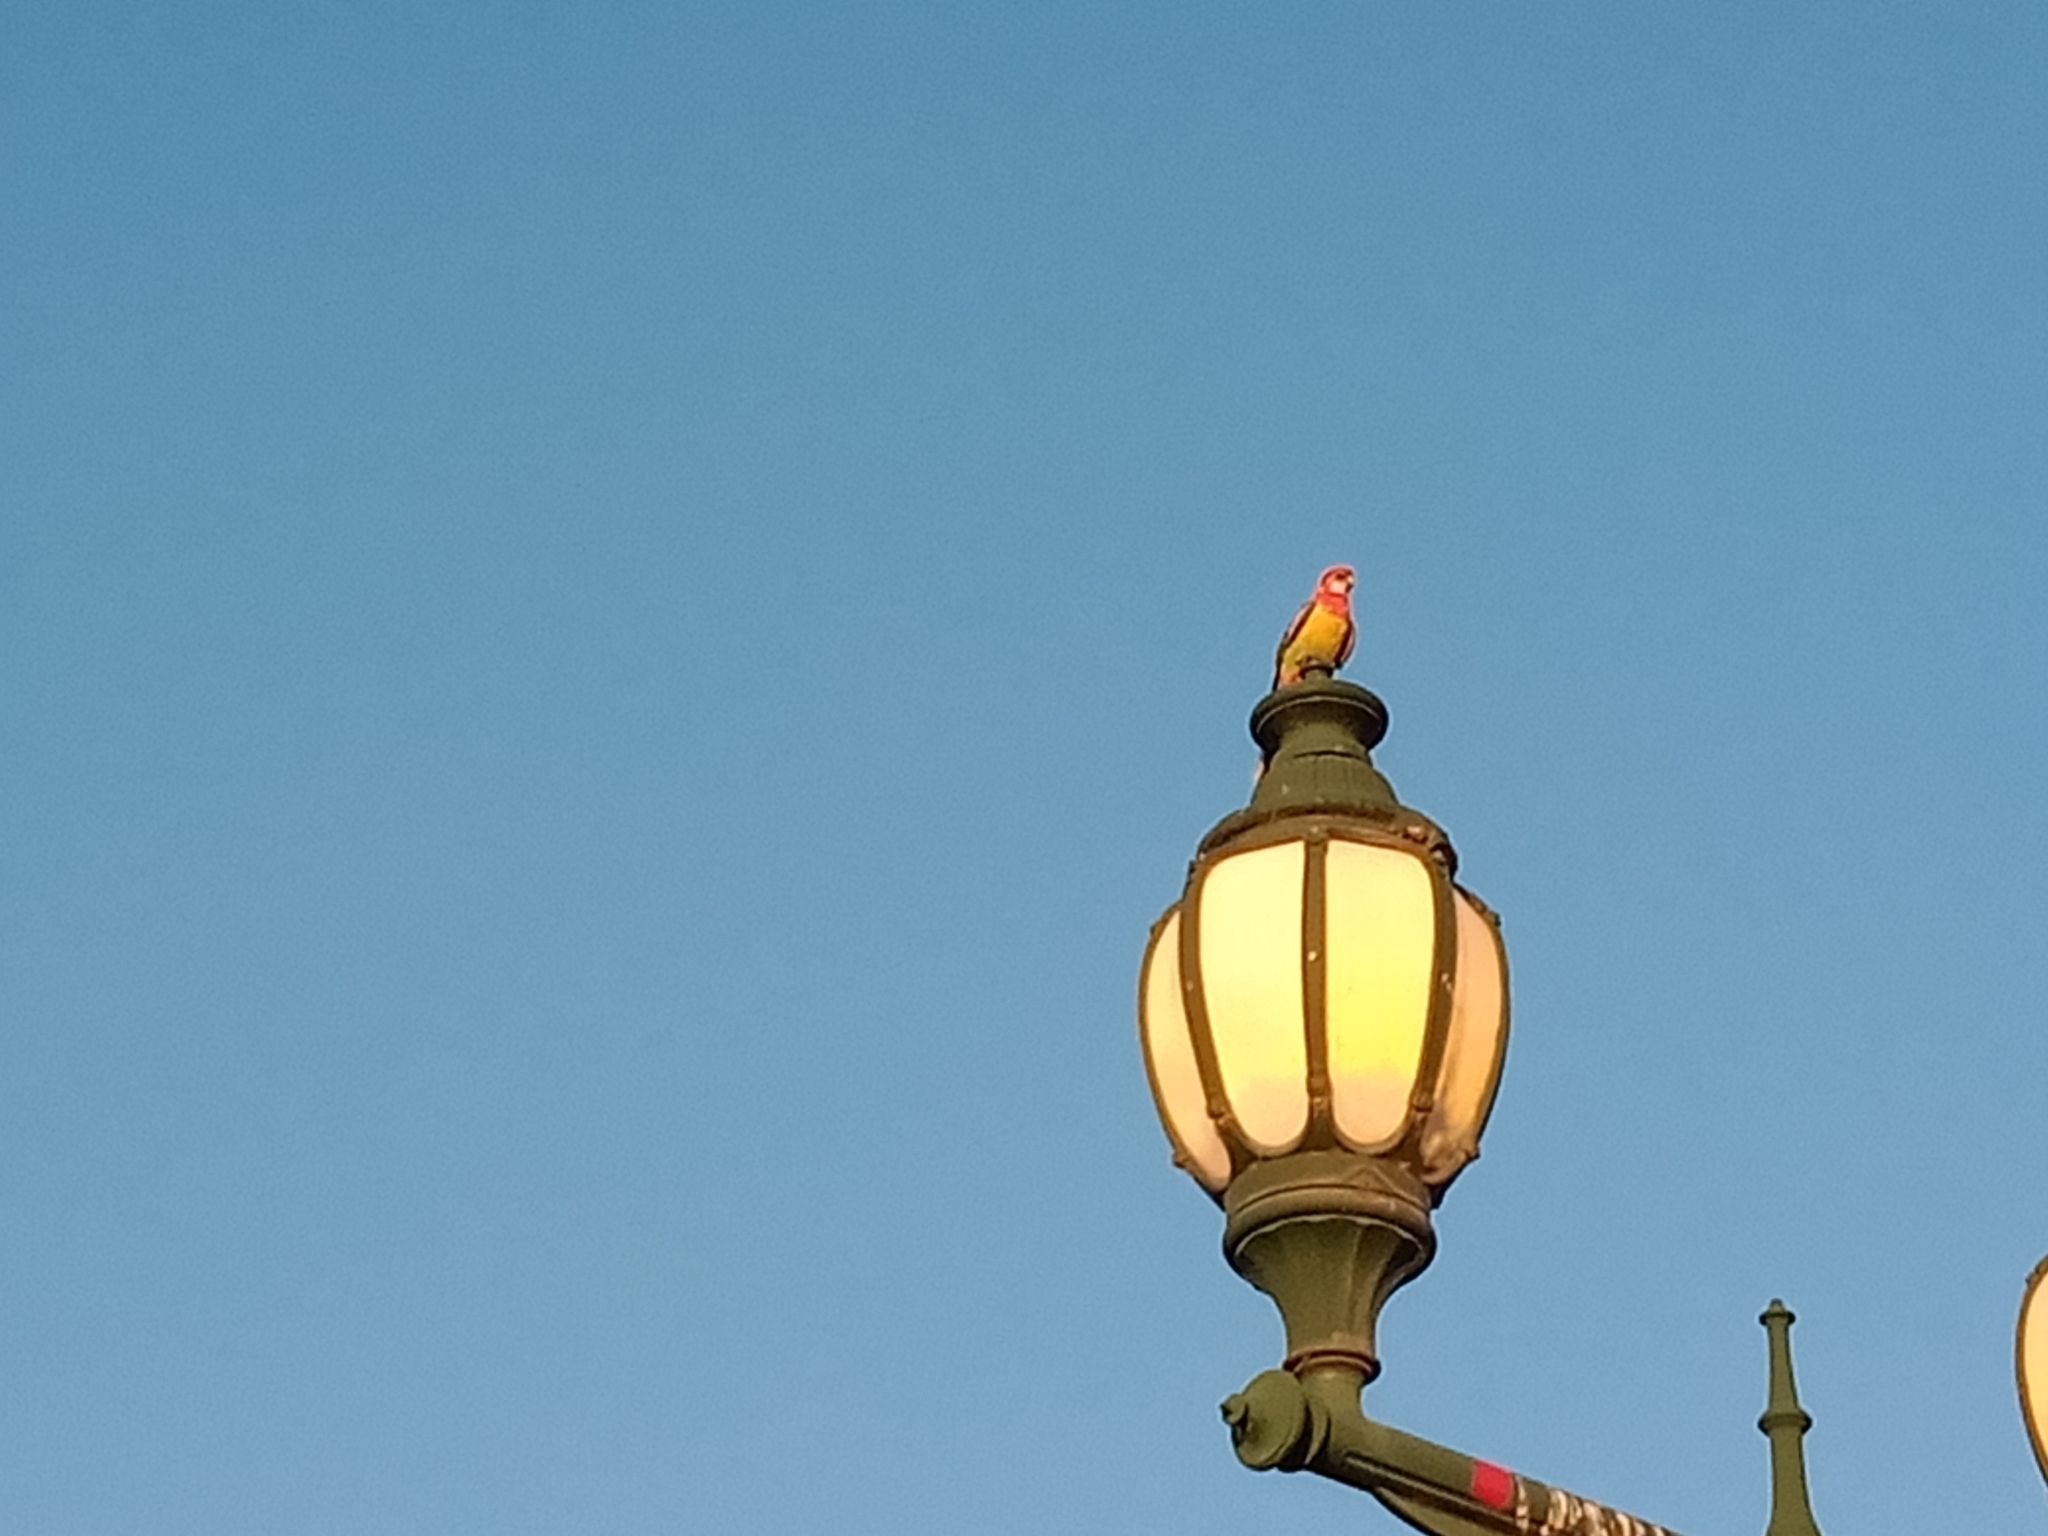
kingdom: Animalia
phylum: Chordata
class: Aves
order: Psittaciformes
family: Psittacidae
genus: Platycercus
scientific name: Platycercus eximius
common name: Eastern rosella
